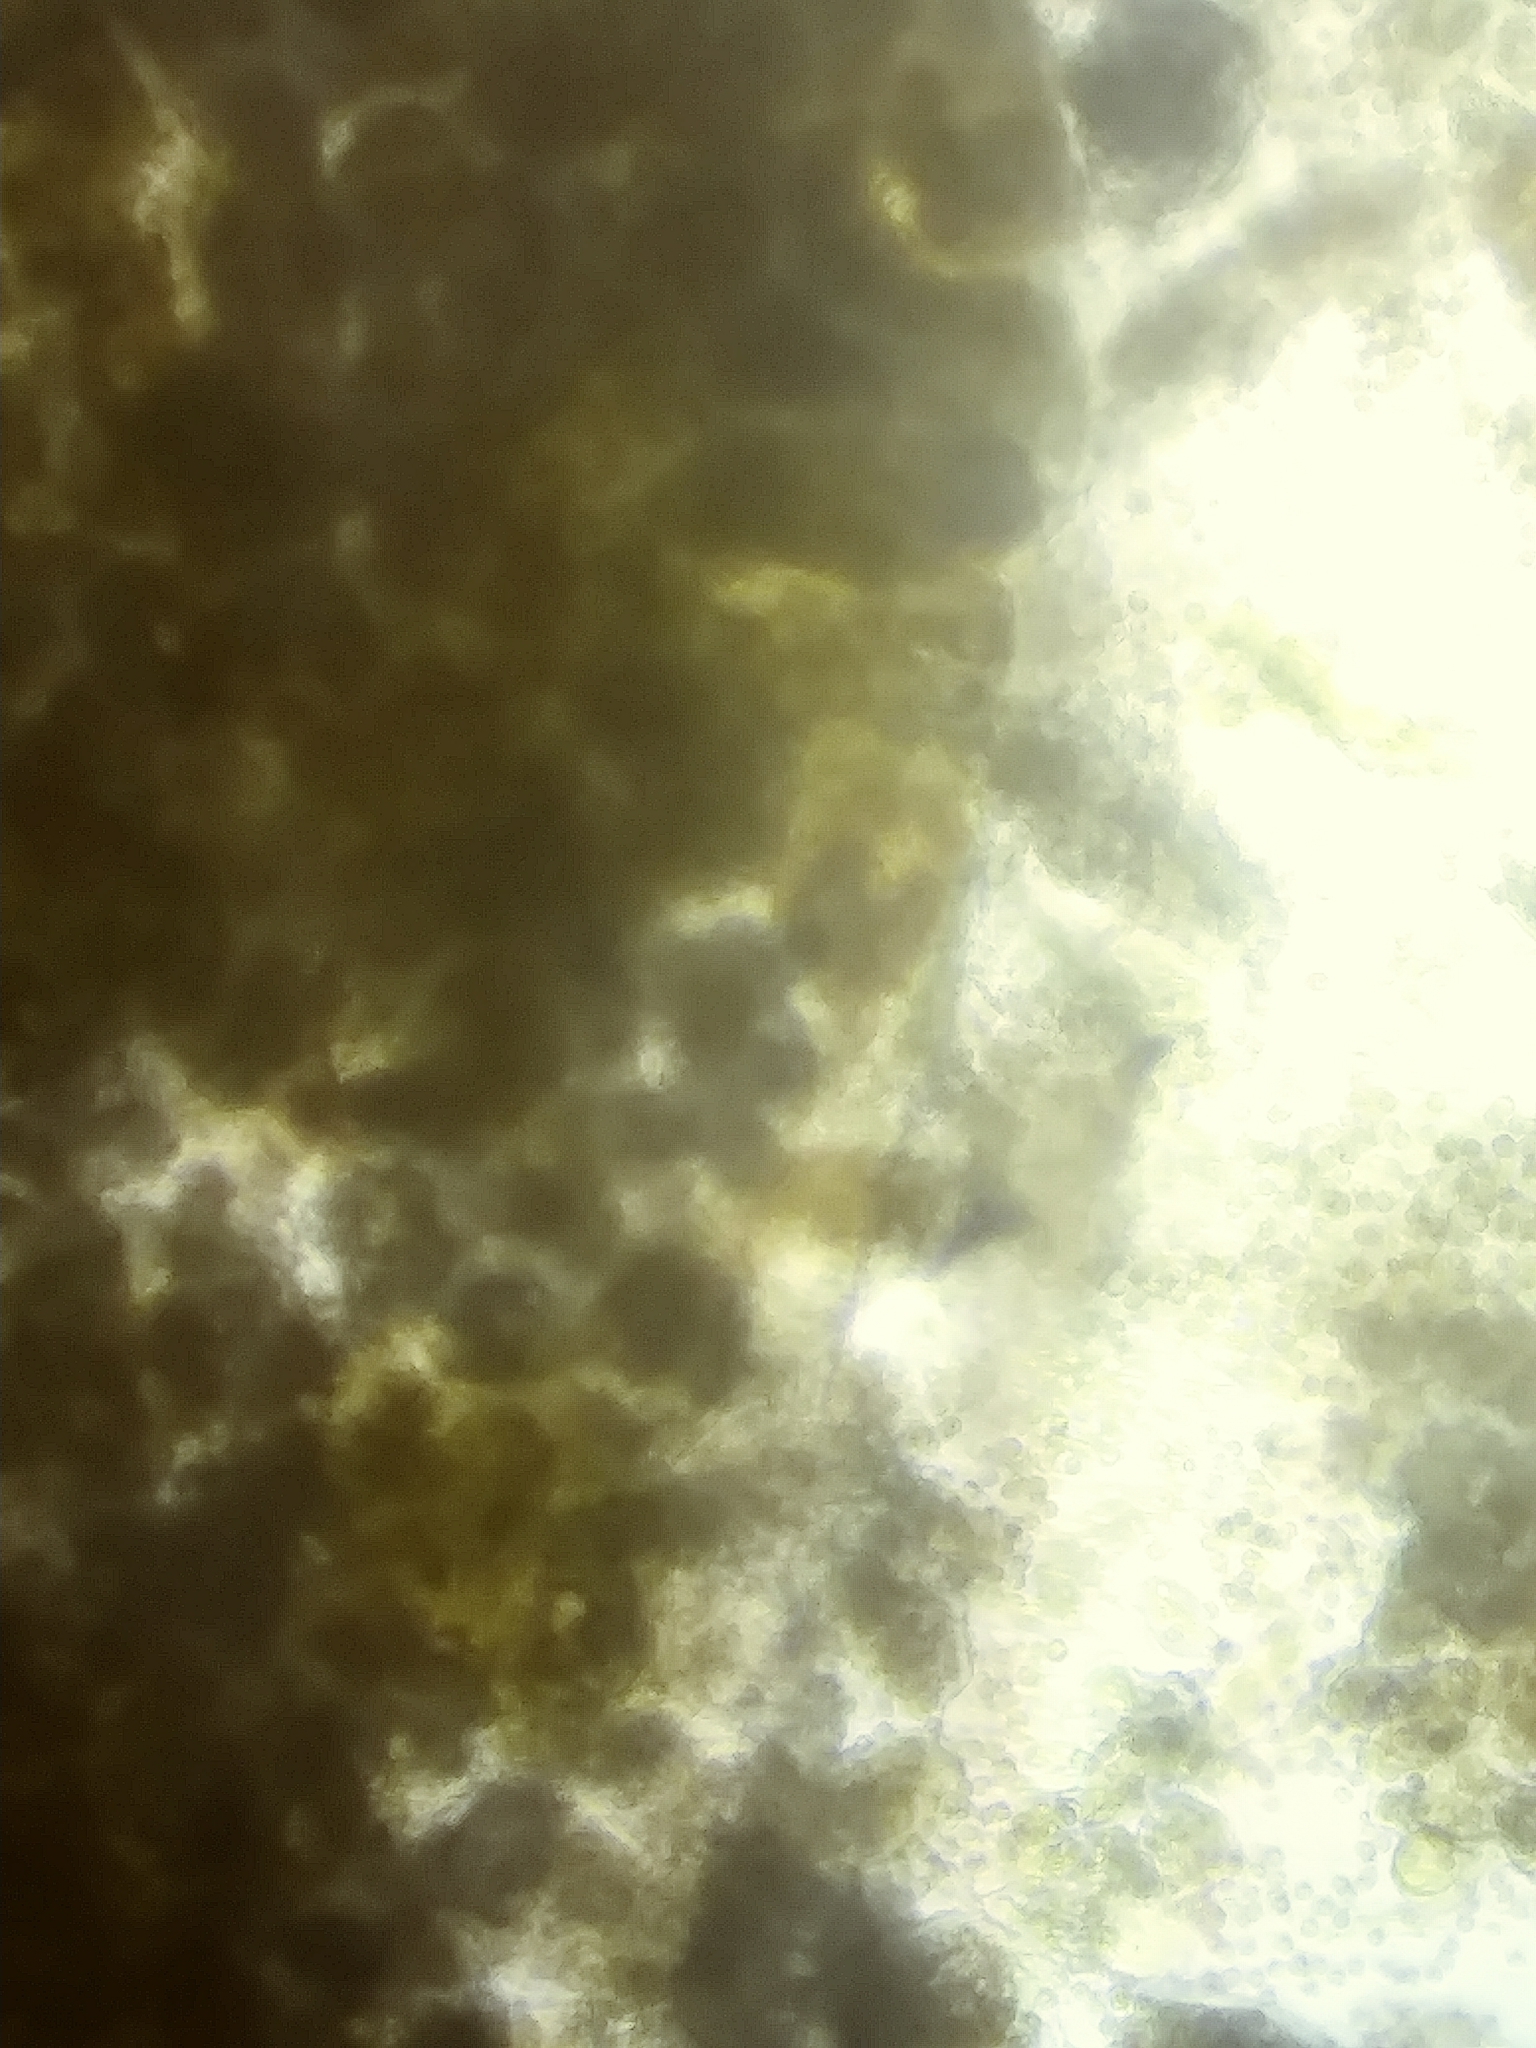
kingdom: Protozoa
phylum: Mycetozoa
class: Myxomycetes
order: Cribrariales
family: Tubiferaceae
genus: Lycogala
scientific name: Lycogala flavofuscum
